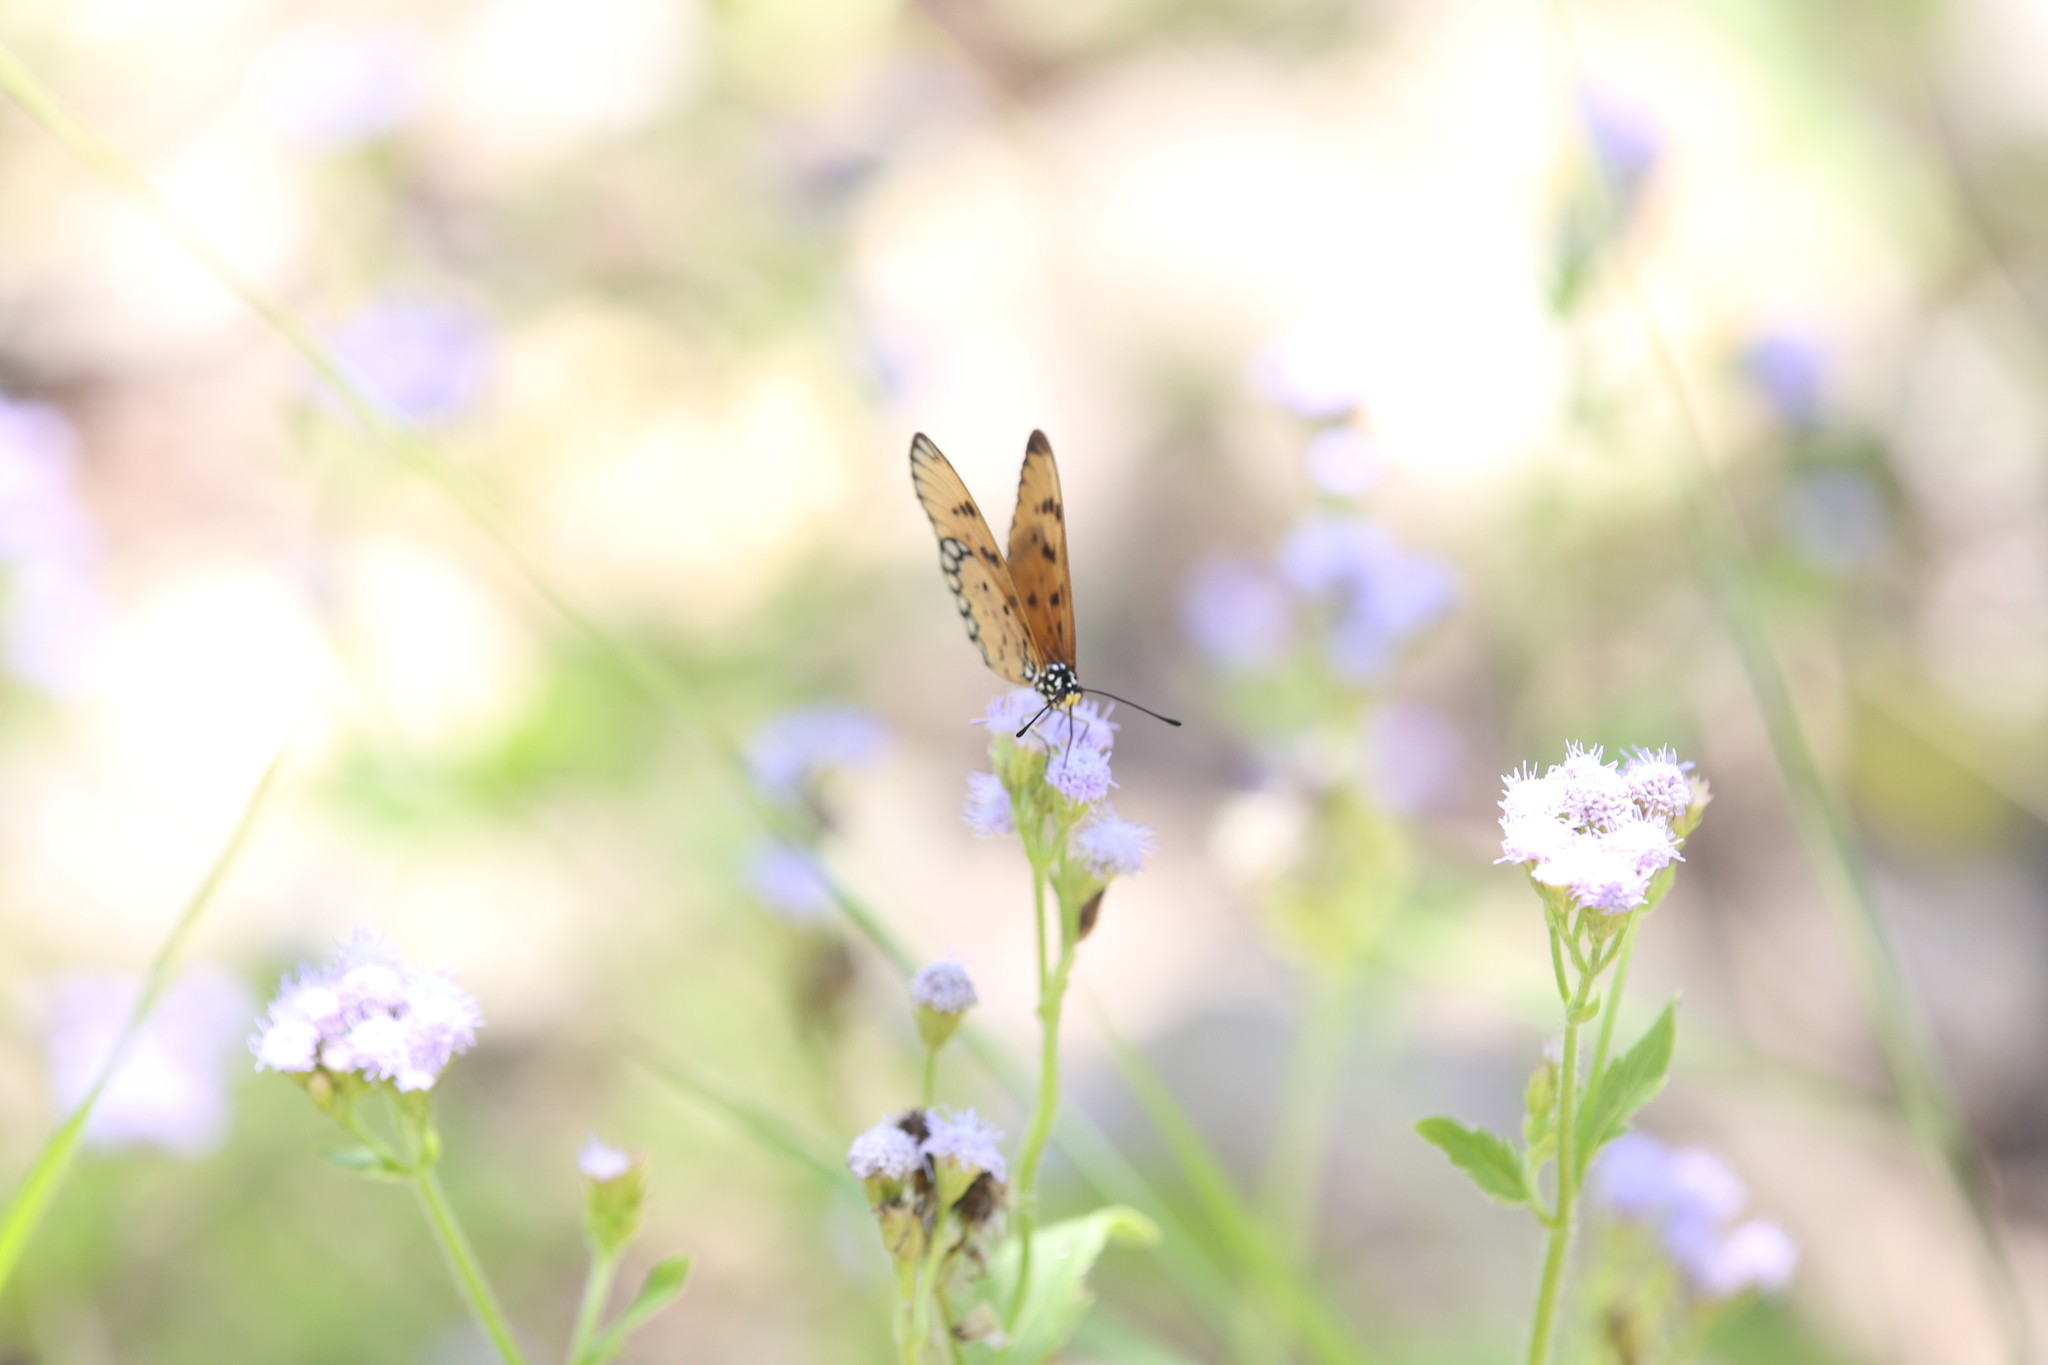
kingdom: Animalia
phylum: Arthropoda
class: Insecta
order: Lepidoptera
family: Nymphalidae
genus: Acraea
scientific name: Acraea terpsicore
